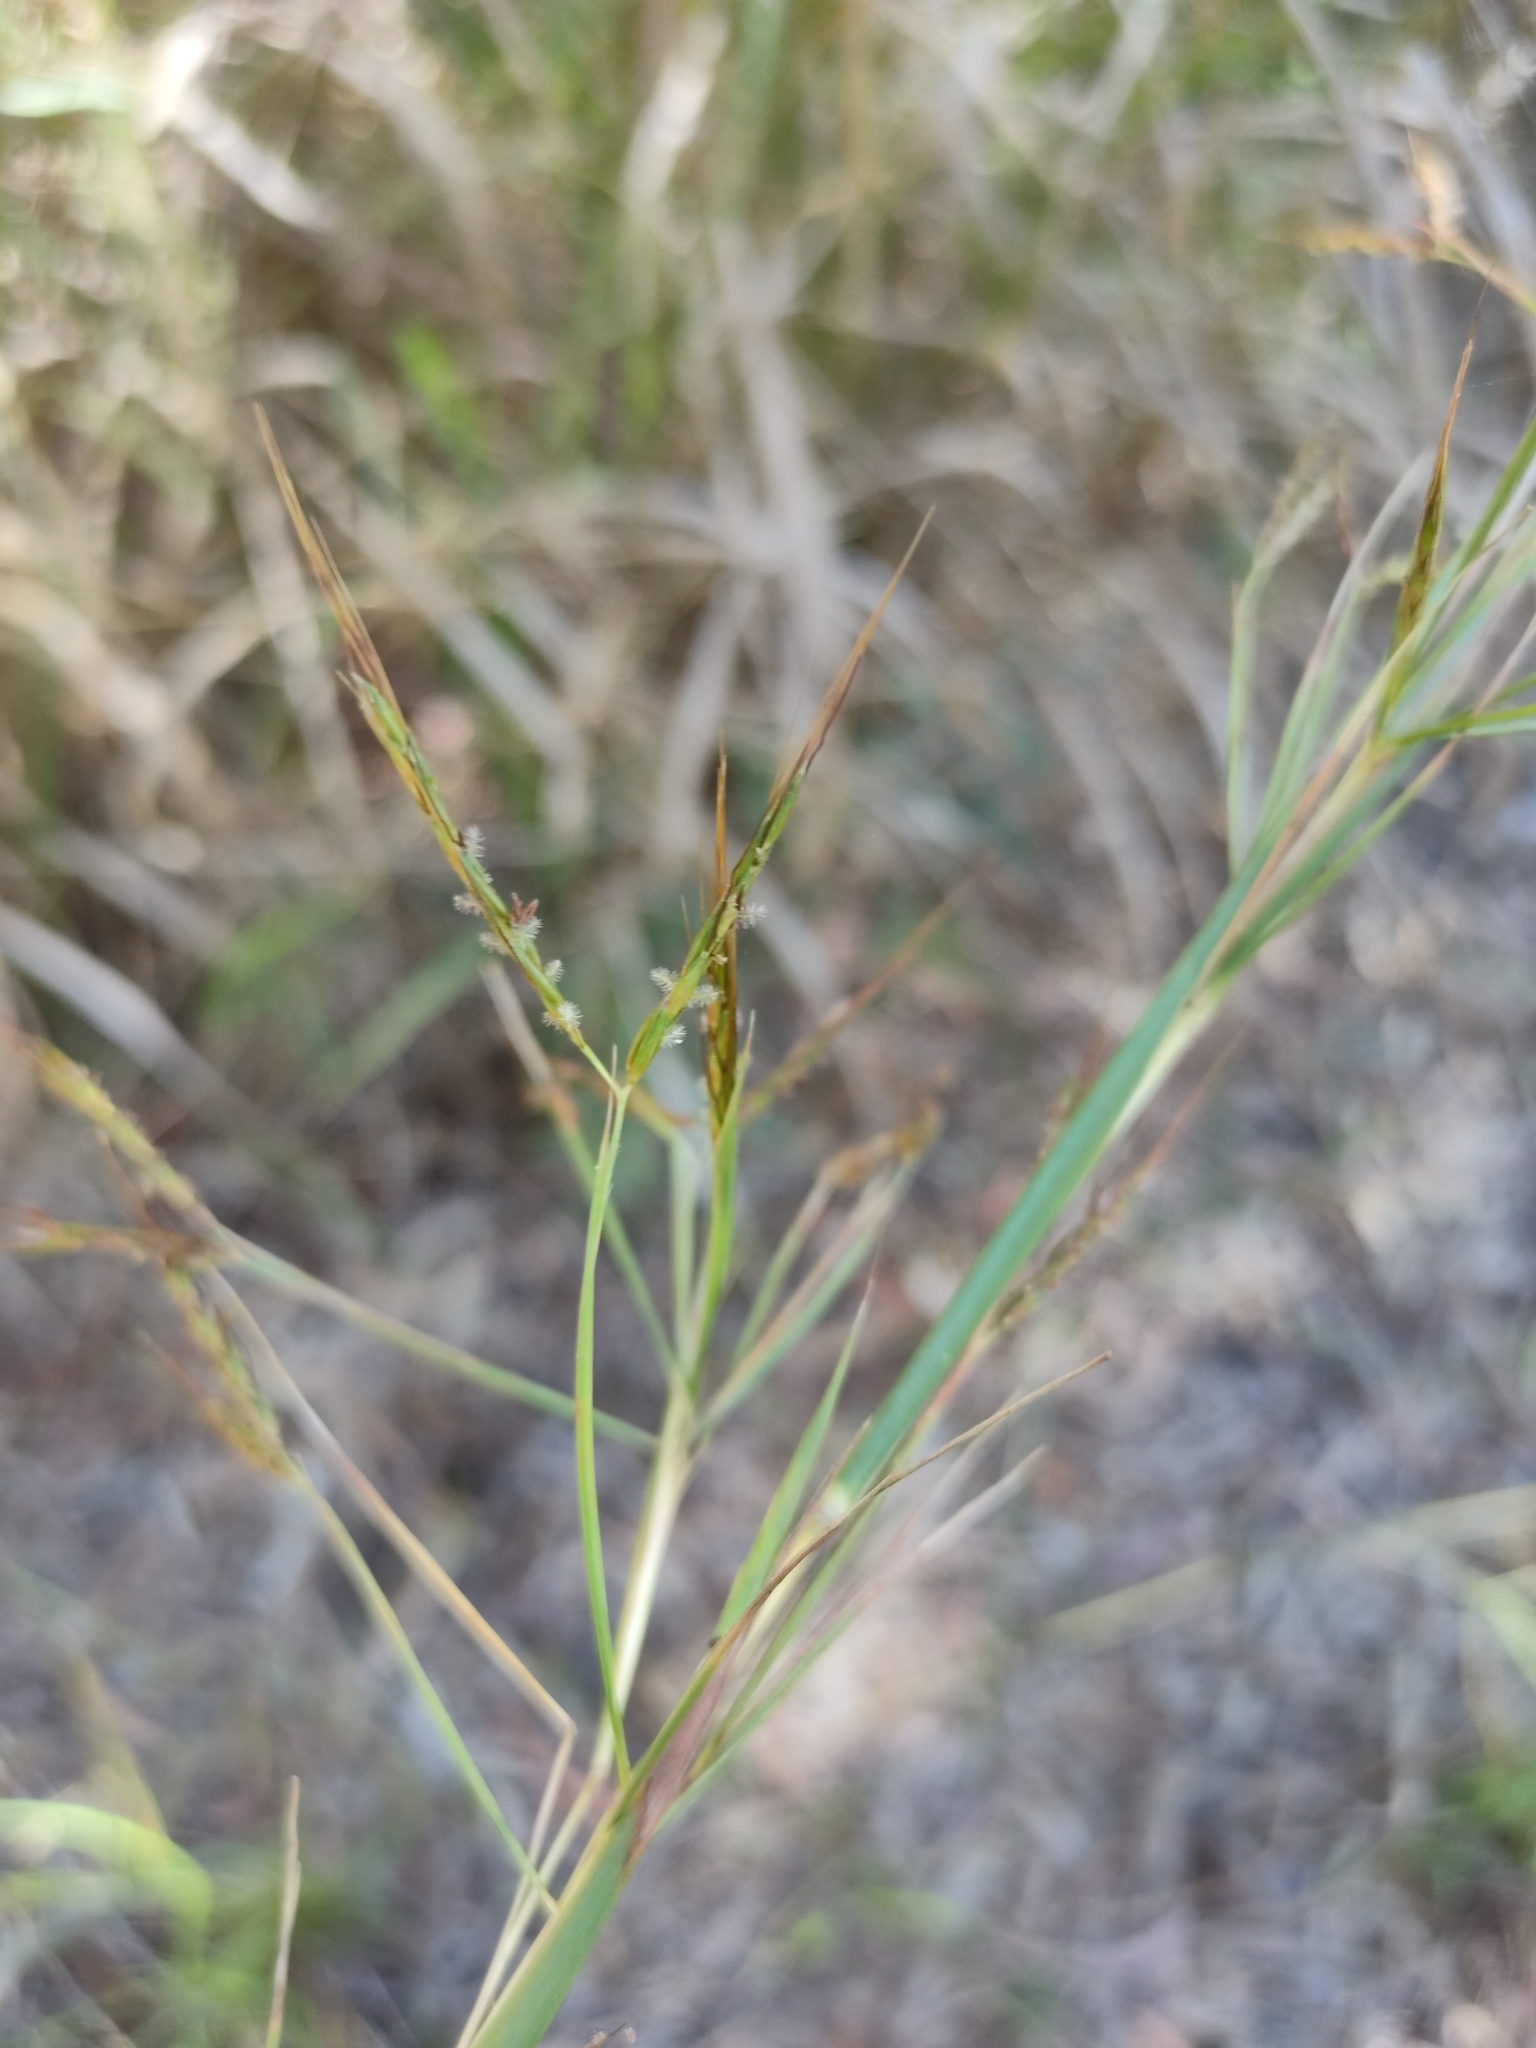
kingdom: Plantae
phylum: Tracheophyta
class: Liliopsida
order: Poales
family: Poaceae
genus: Hyparrhenia
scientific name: Hyparrhenia hirta
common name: Thatching grass
